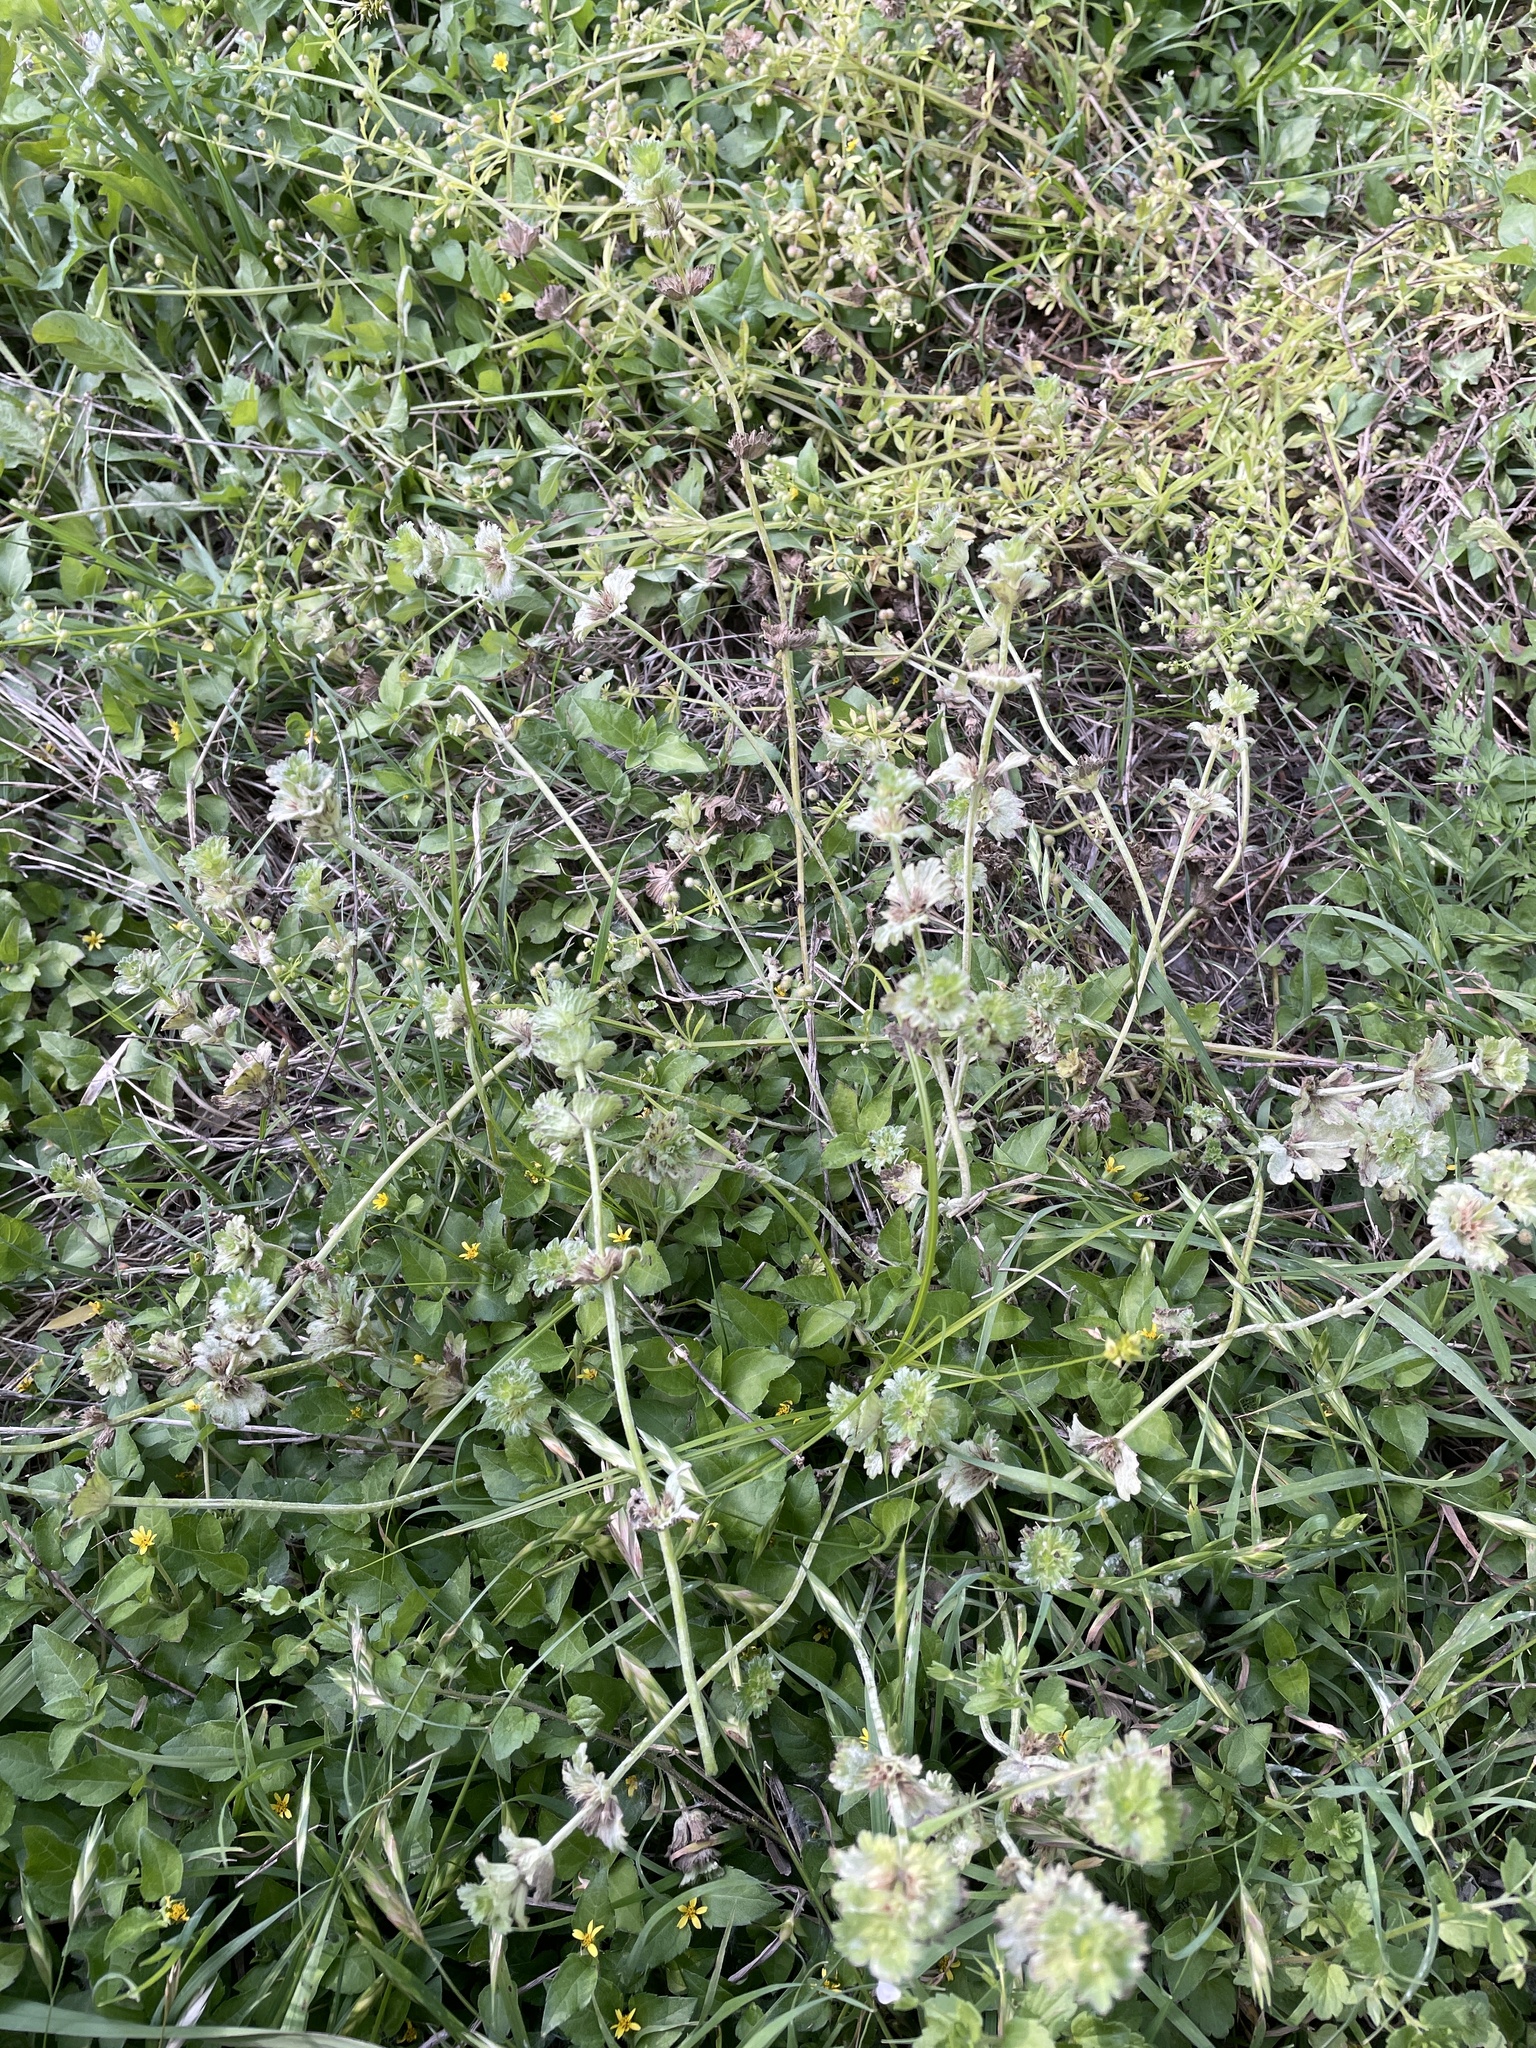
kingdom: Plantae
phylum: Tracheophyta
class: Magnoliopsida
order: Lamiales
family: Lamiaceae
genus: Lamium
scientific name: Lamium amplexicaule
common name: Henbit dead-nettle
